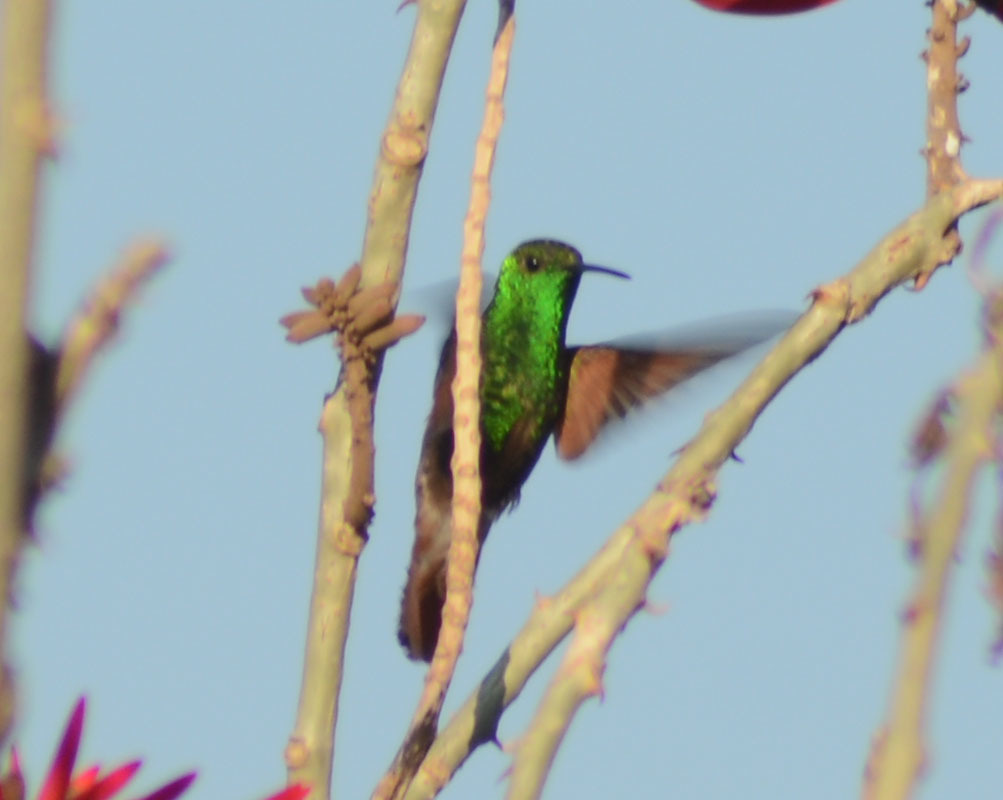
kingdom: Animalia
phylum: Chordata
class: Aves
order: Apodiformes
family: Trochilidae
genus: Saucerottia
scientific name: Saucerottia beryllina
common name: Berylline hummingbird
